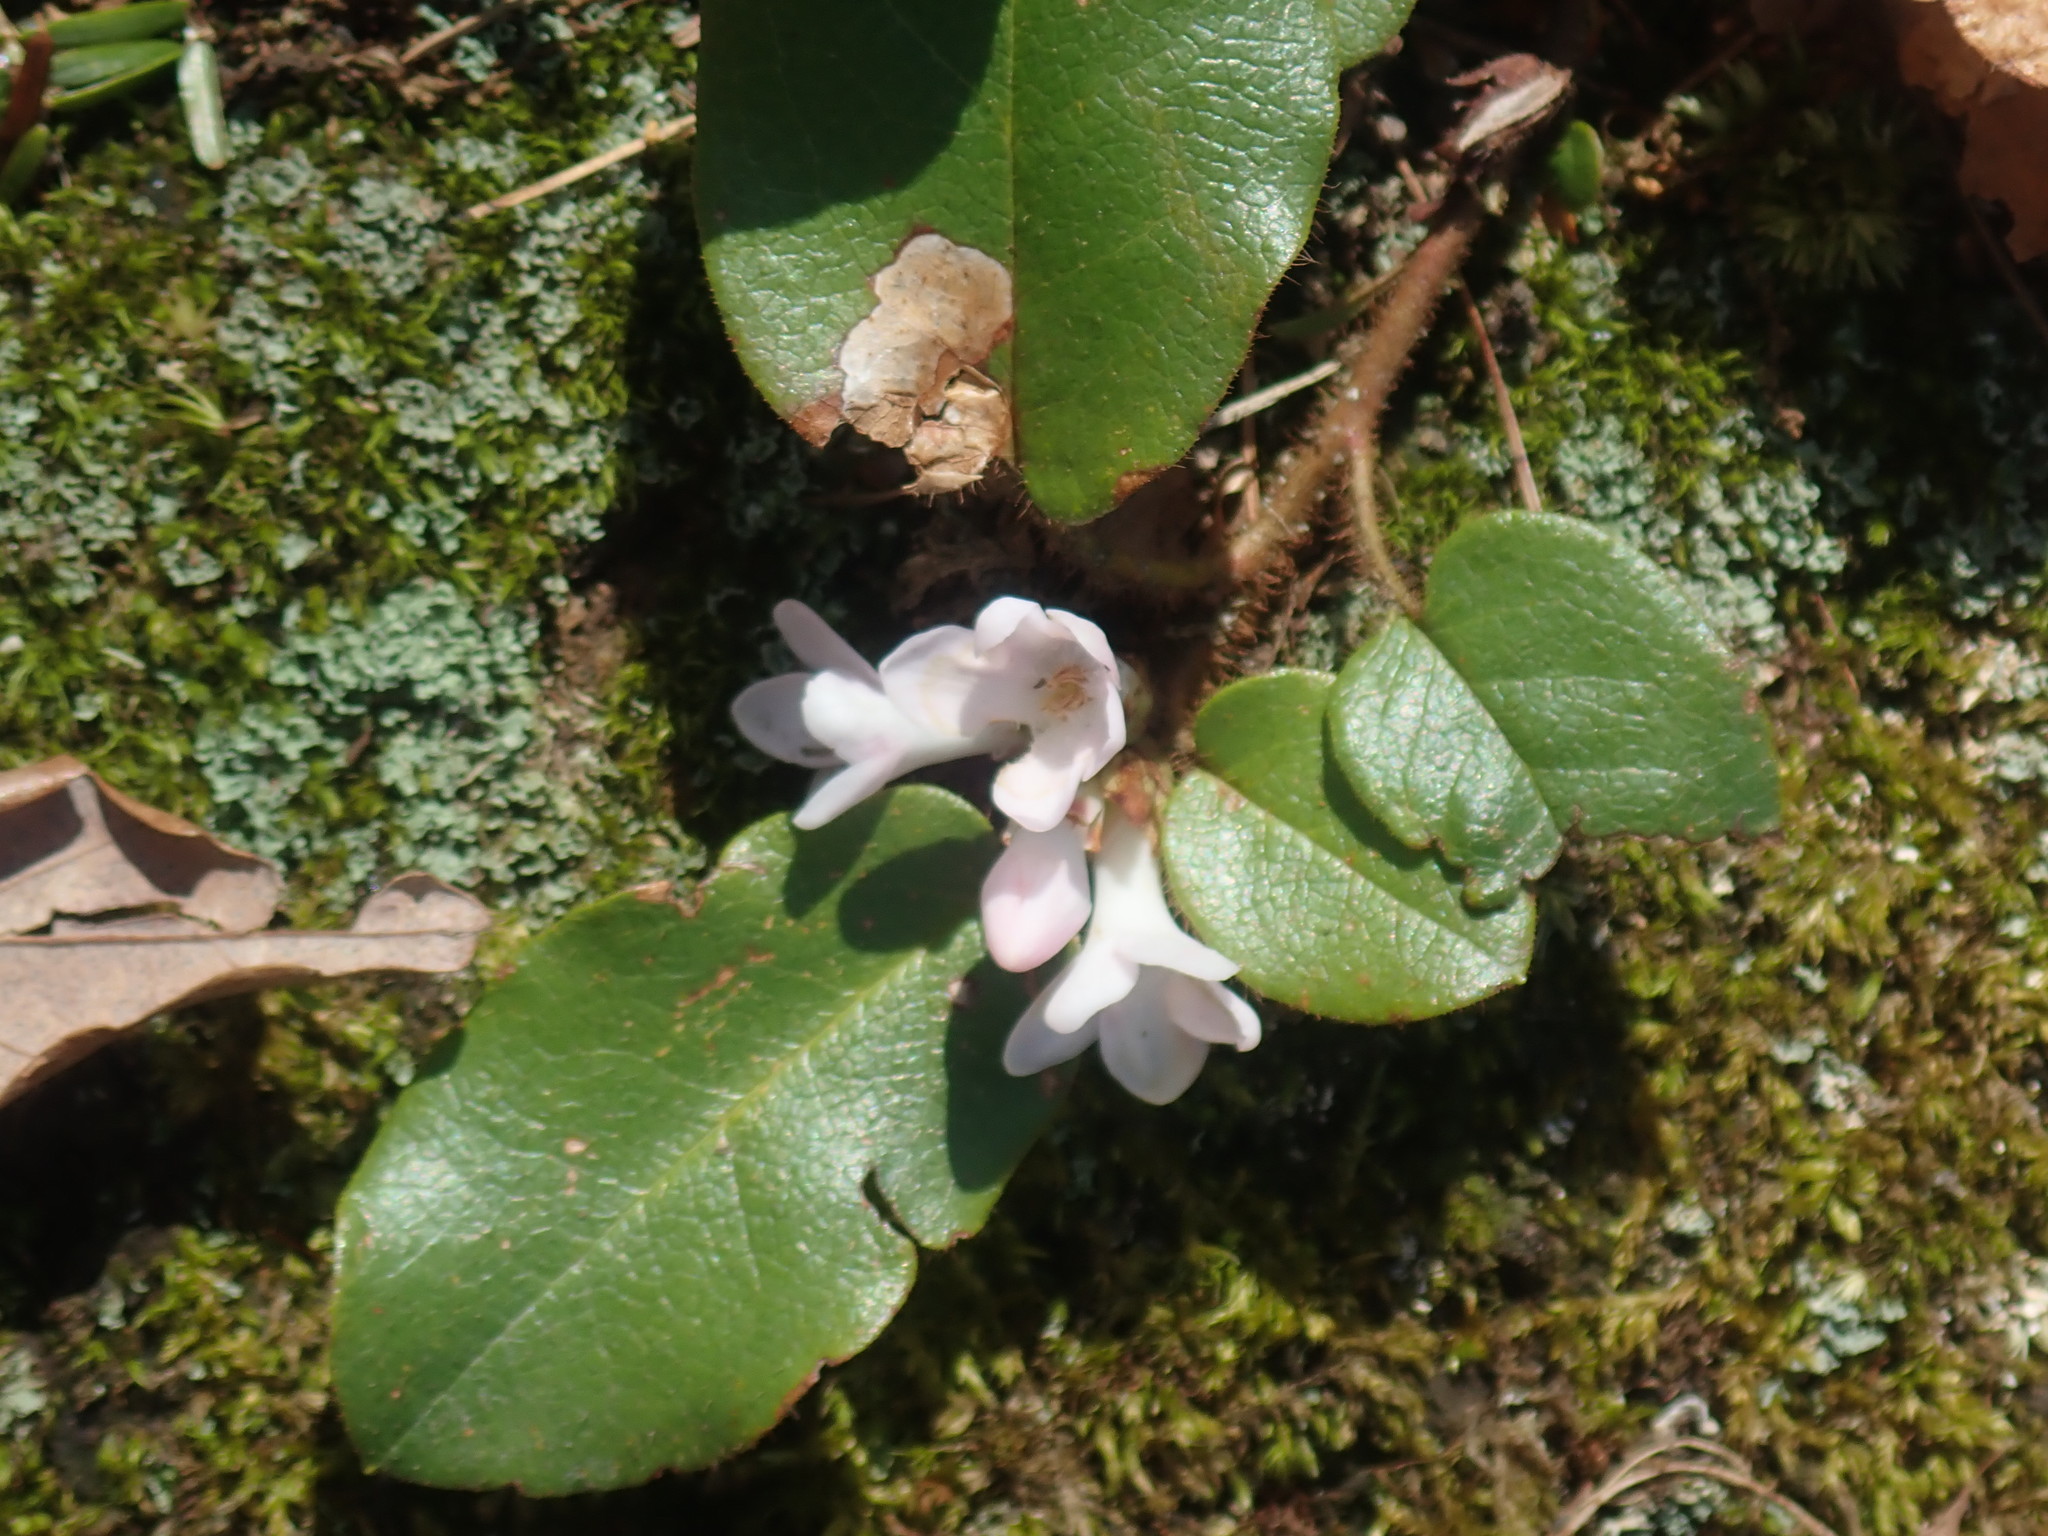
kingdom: Plantae
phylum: Tracheophyta
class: Magnoliopsida
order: Ericales
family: Ericaceae
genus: Epigaea
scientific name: Epigaea repens
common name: Gravelroot
